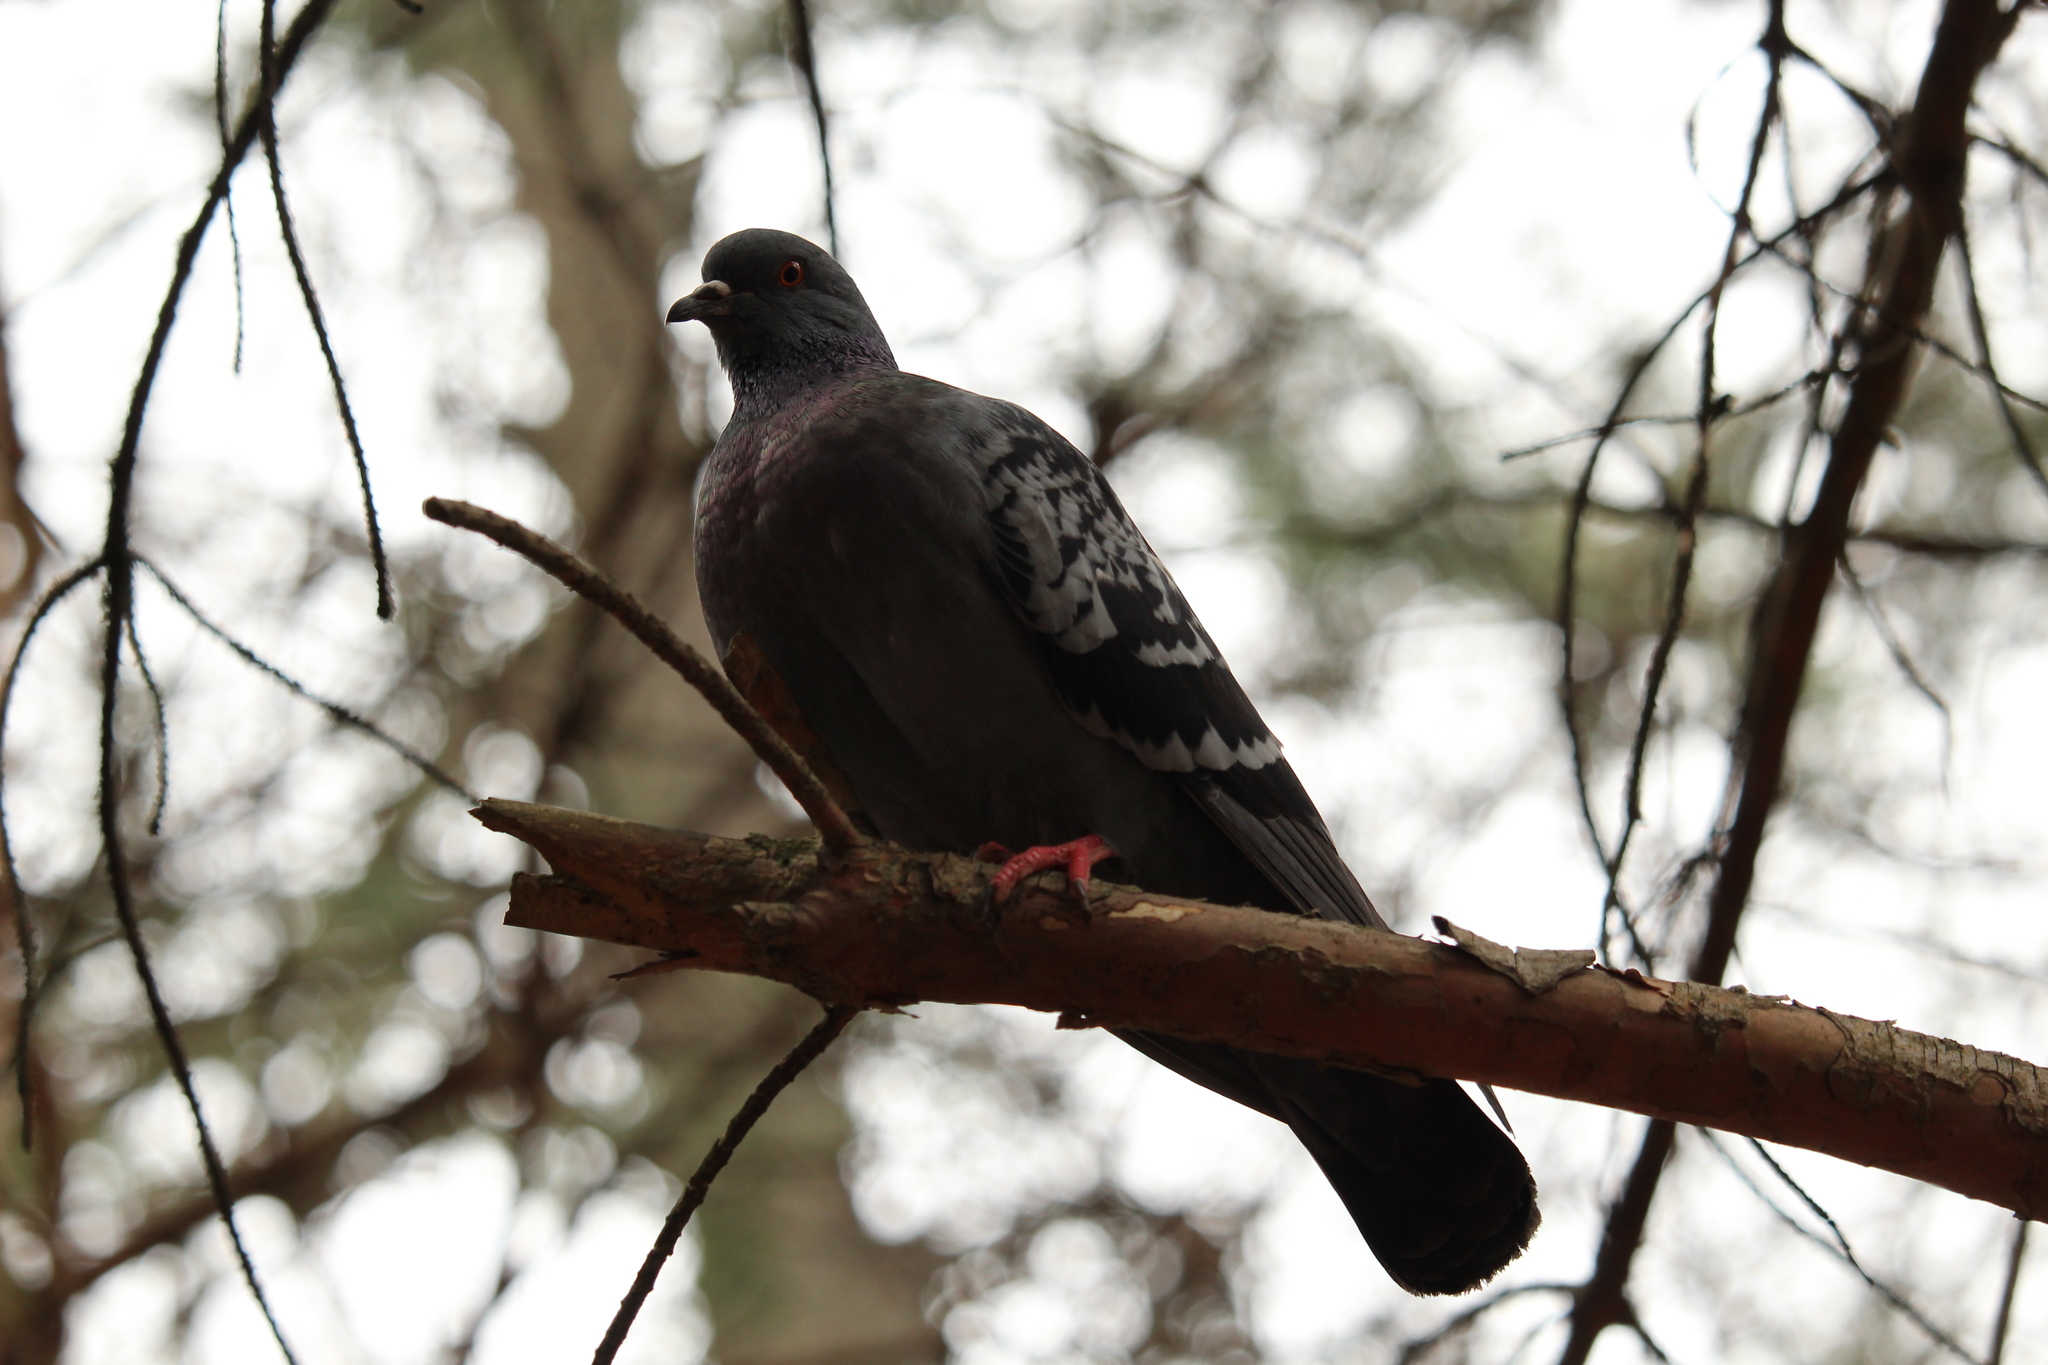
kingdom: Animalia
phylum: Chordata
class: Aves
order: Columbiformes
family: Columbidae
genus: Columba
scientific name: Columba livia
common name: Rock pigeon
